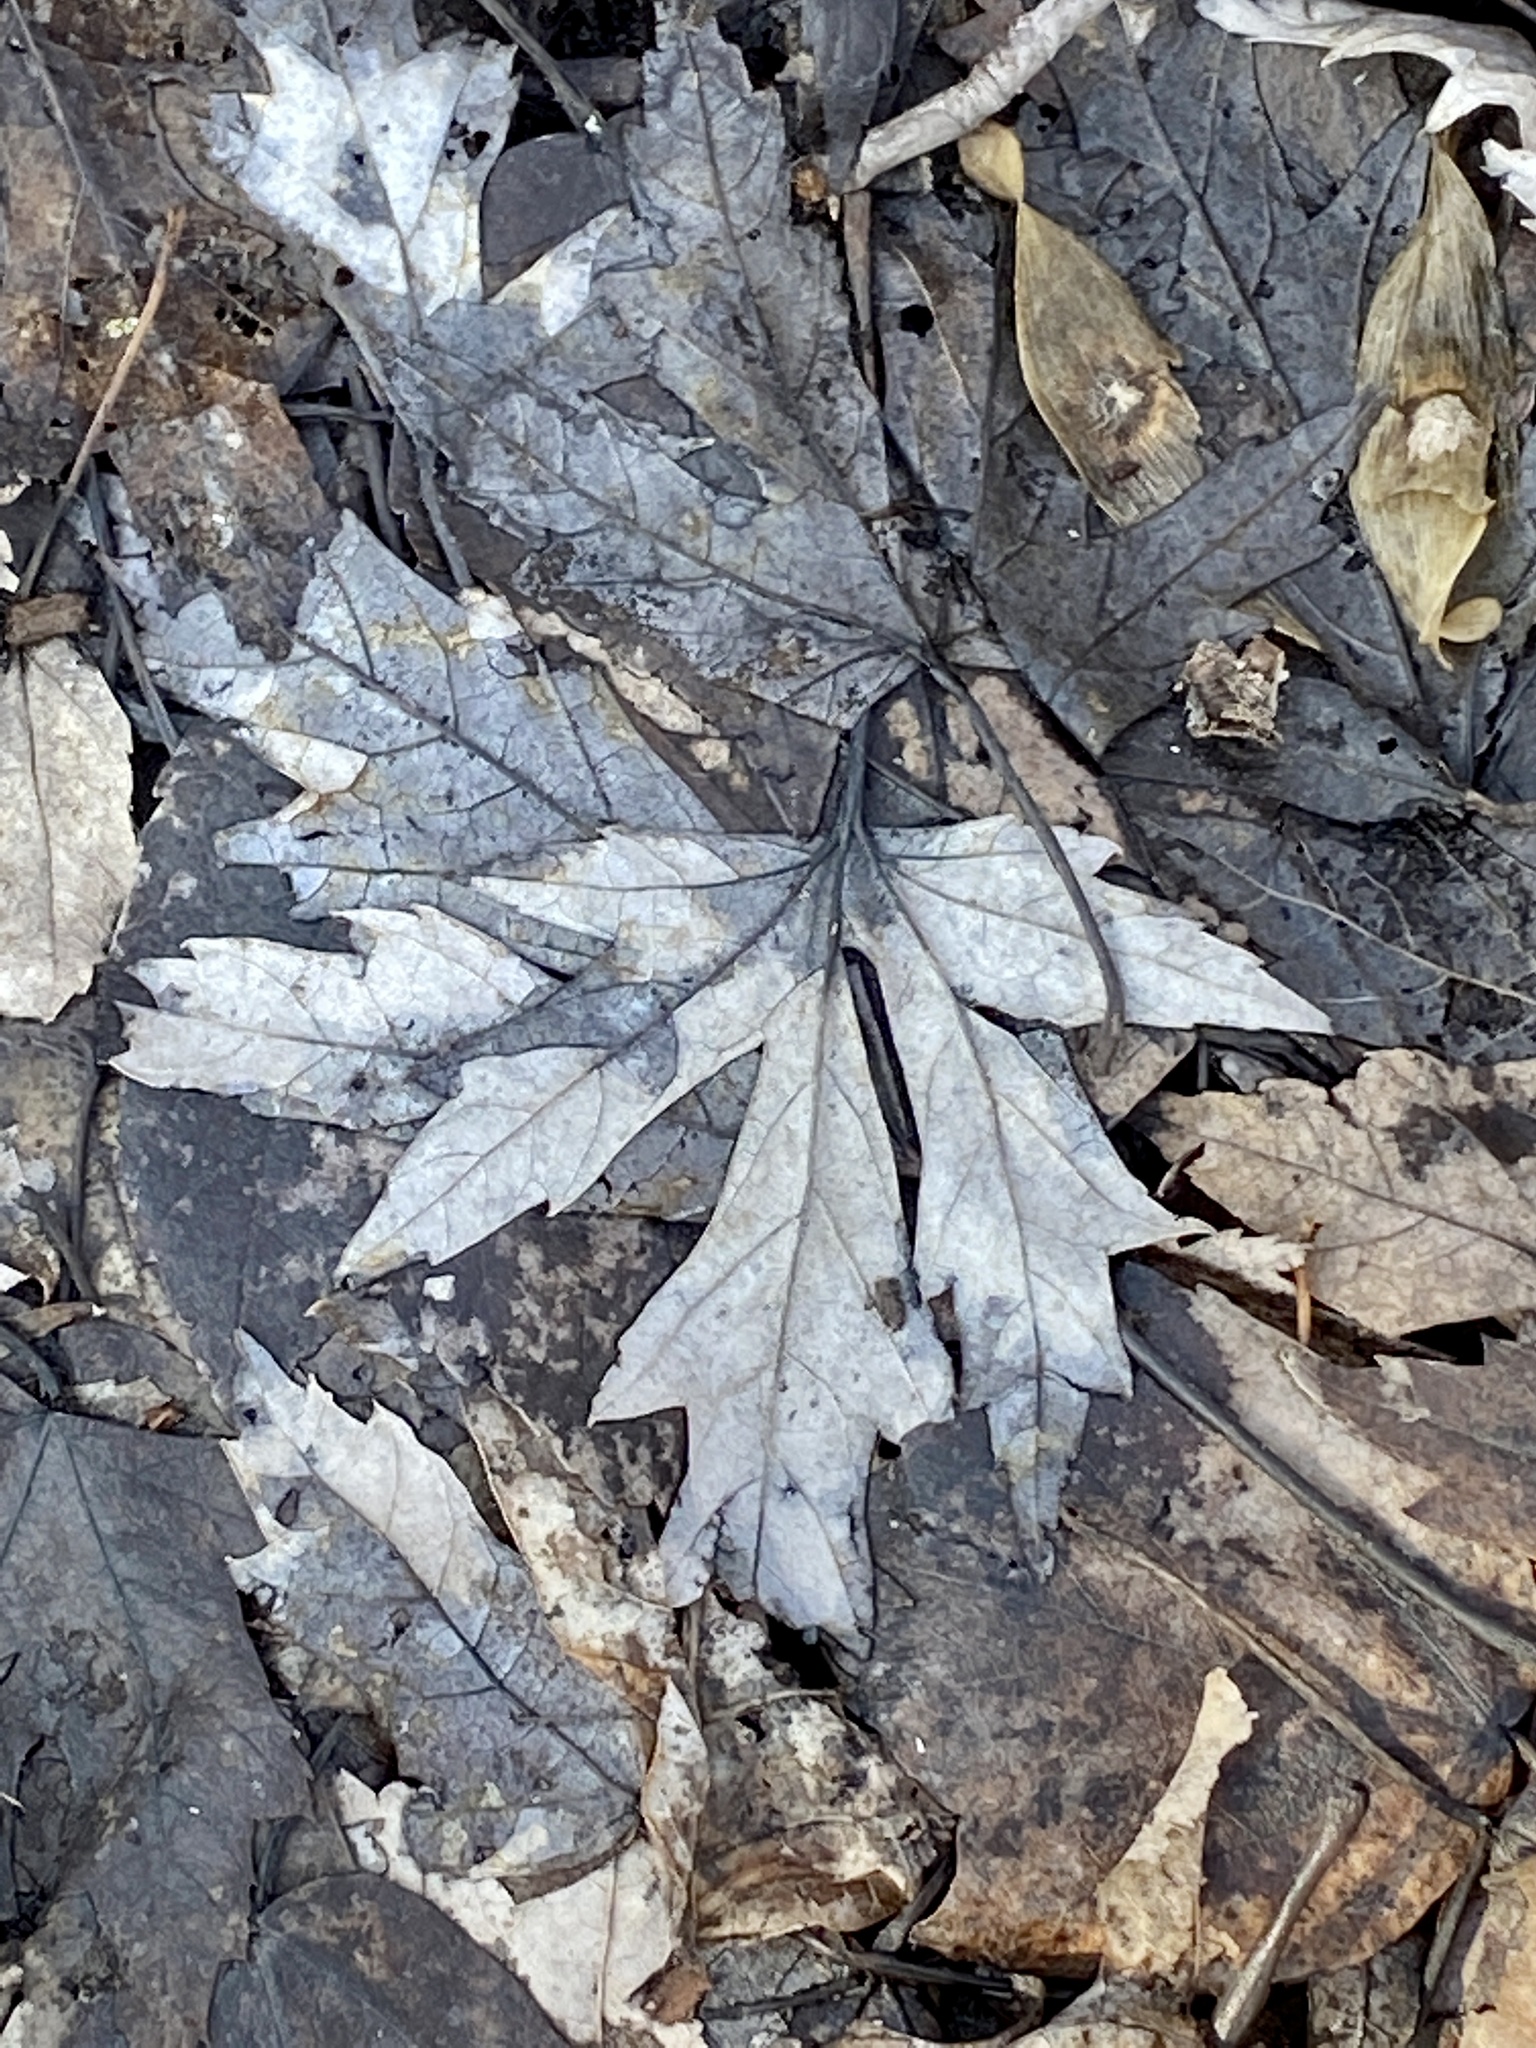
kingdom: Plantae
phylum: Tracheophyta
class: Magnoliopsida
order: Sapindales
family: Sapindaceae
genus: Acer
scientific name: Acer saccharinum
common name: Silver maple
